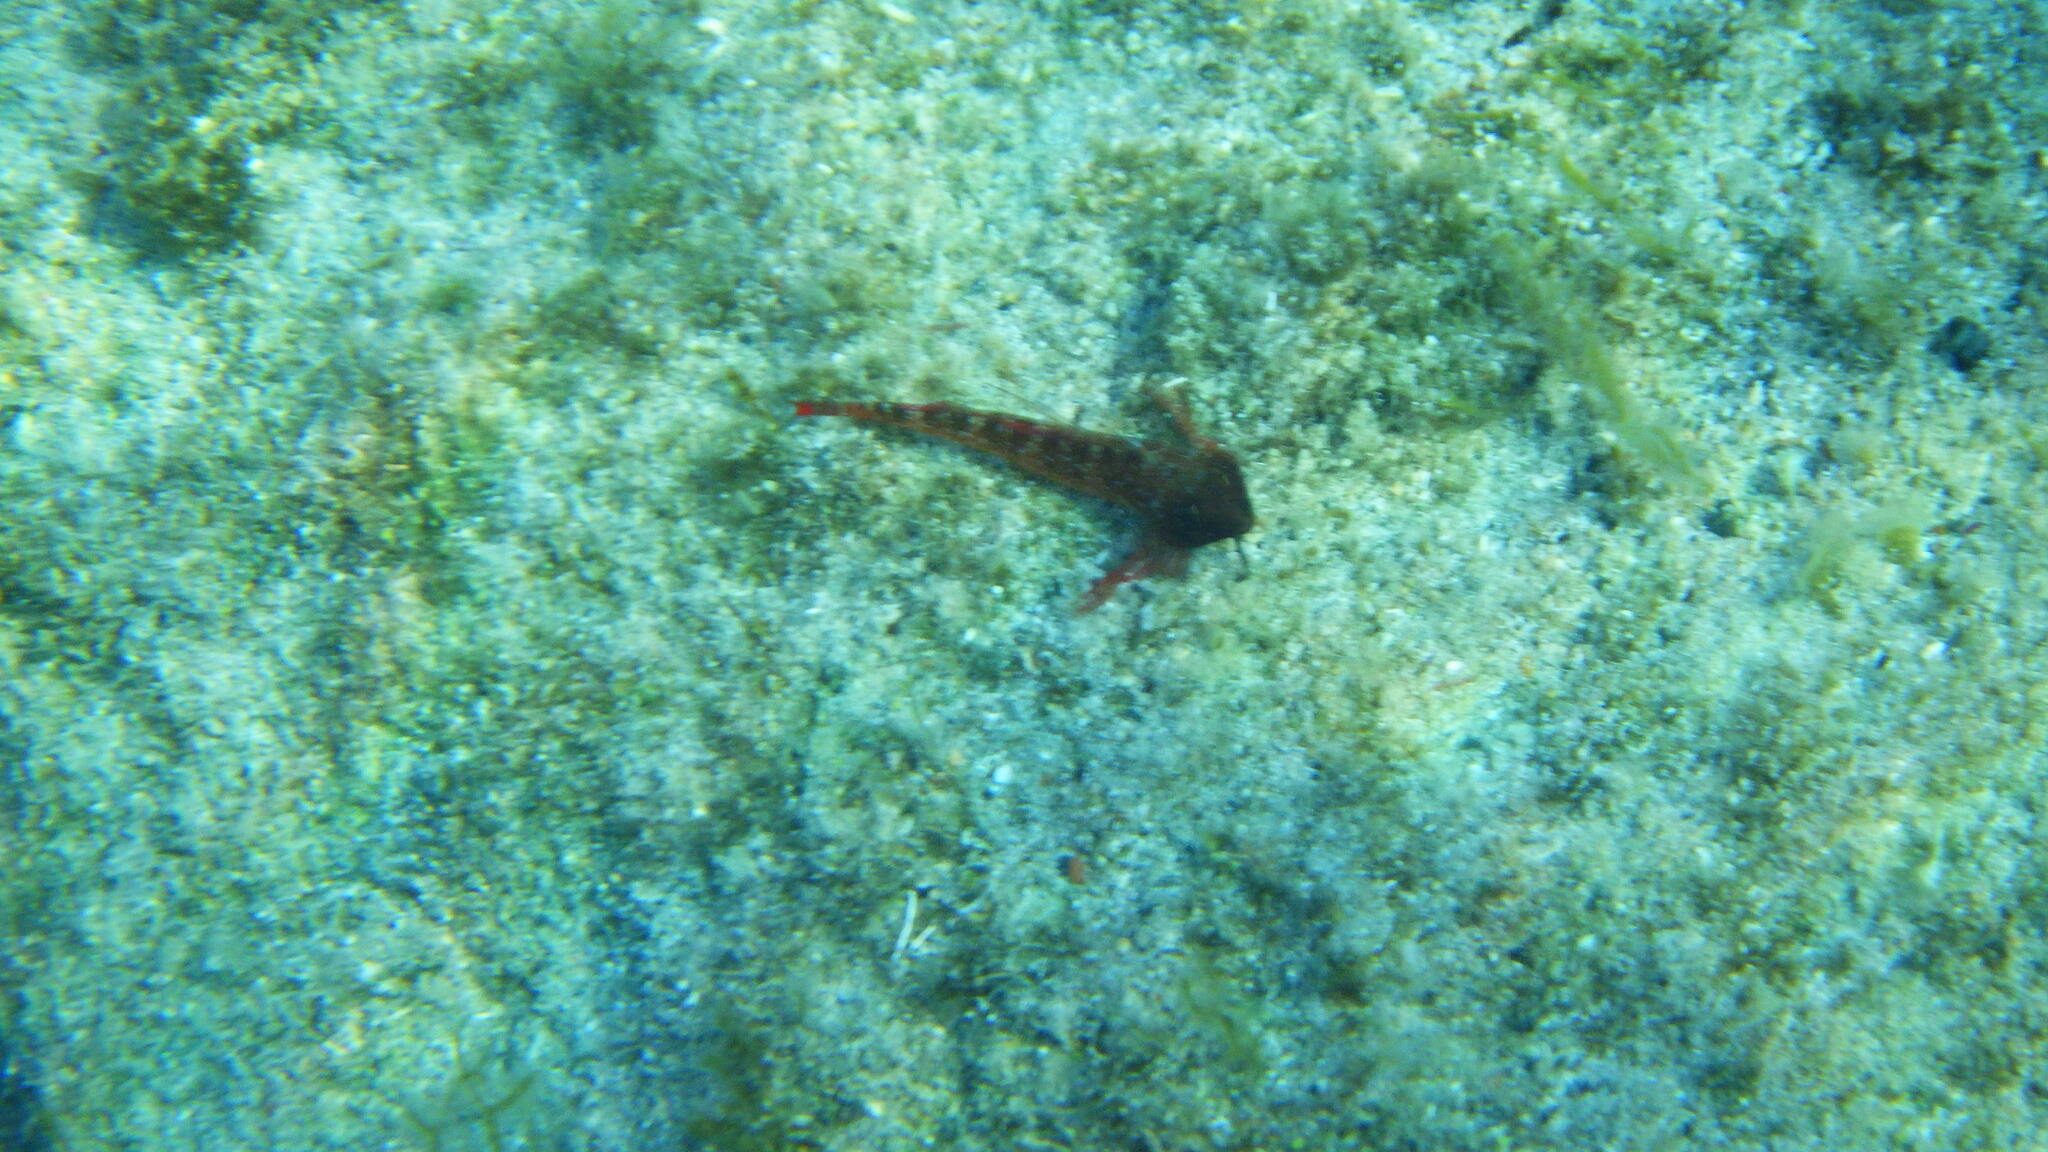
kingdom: Animalia
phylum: Chordata
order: Perciformes
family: Tripterygiidae
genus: Tripterygion
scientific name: Tripterygion tripteronotum
